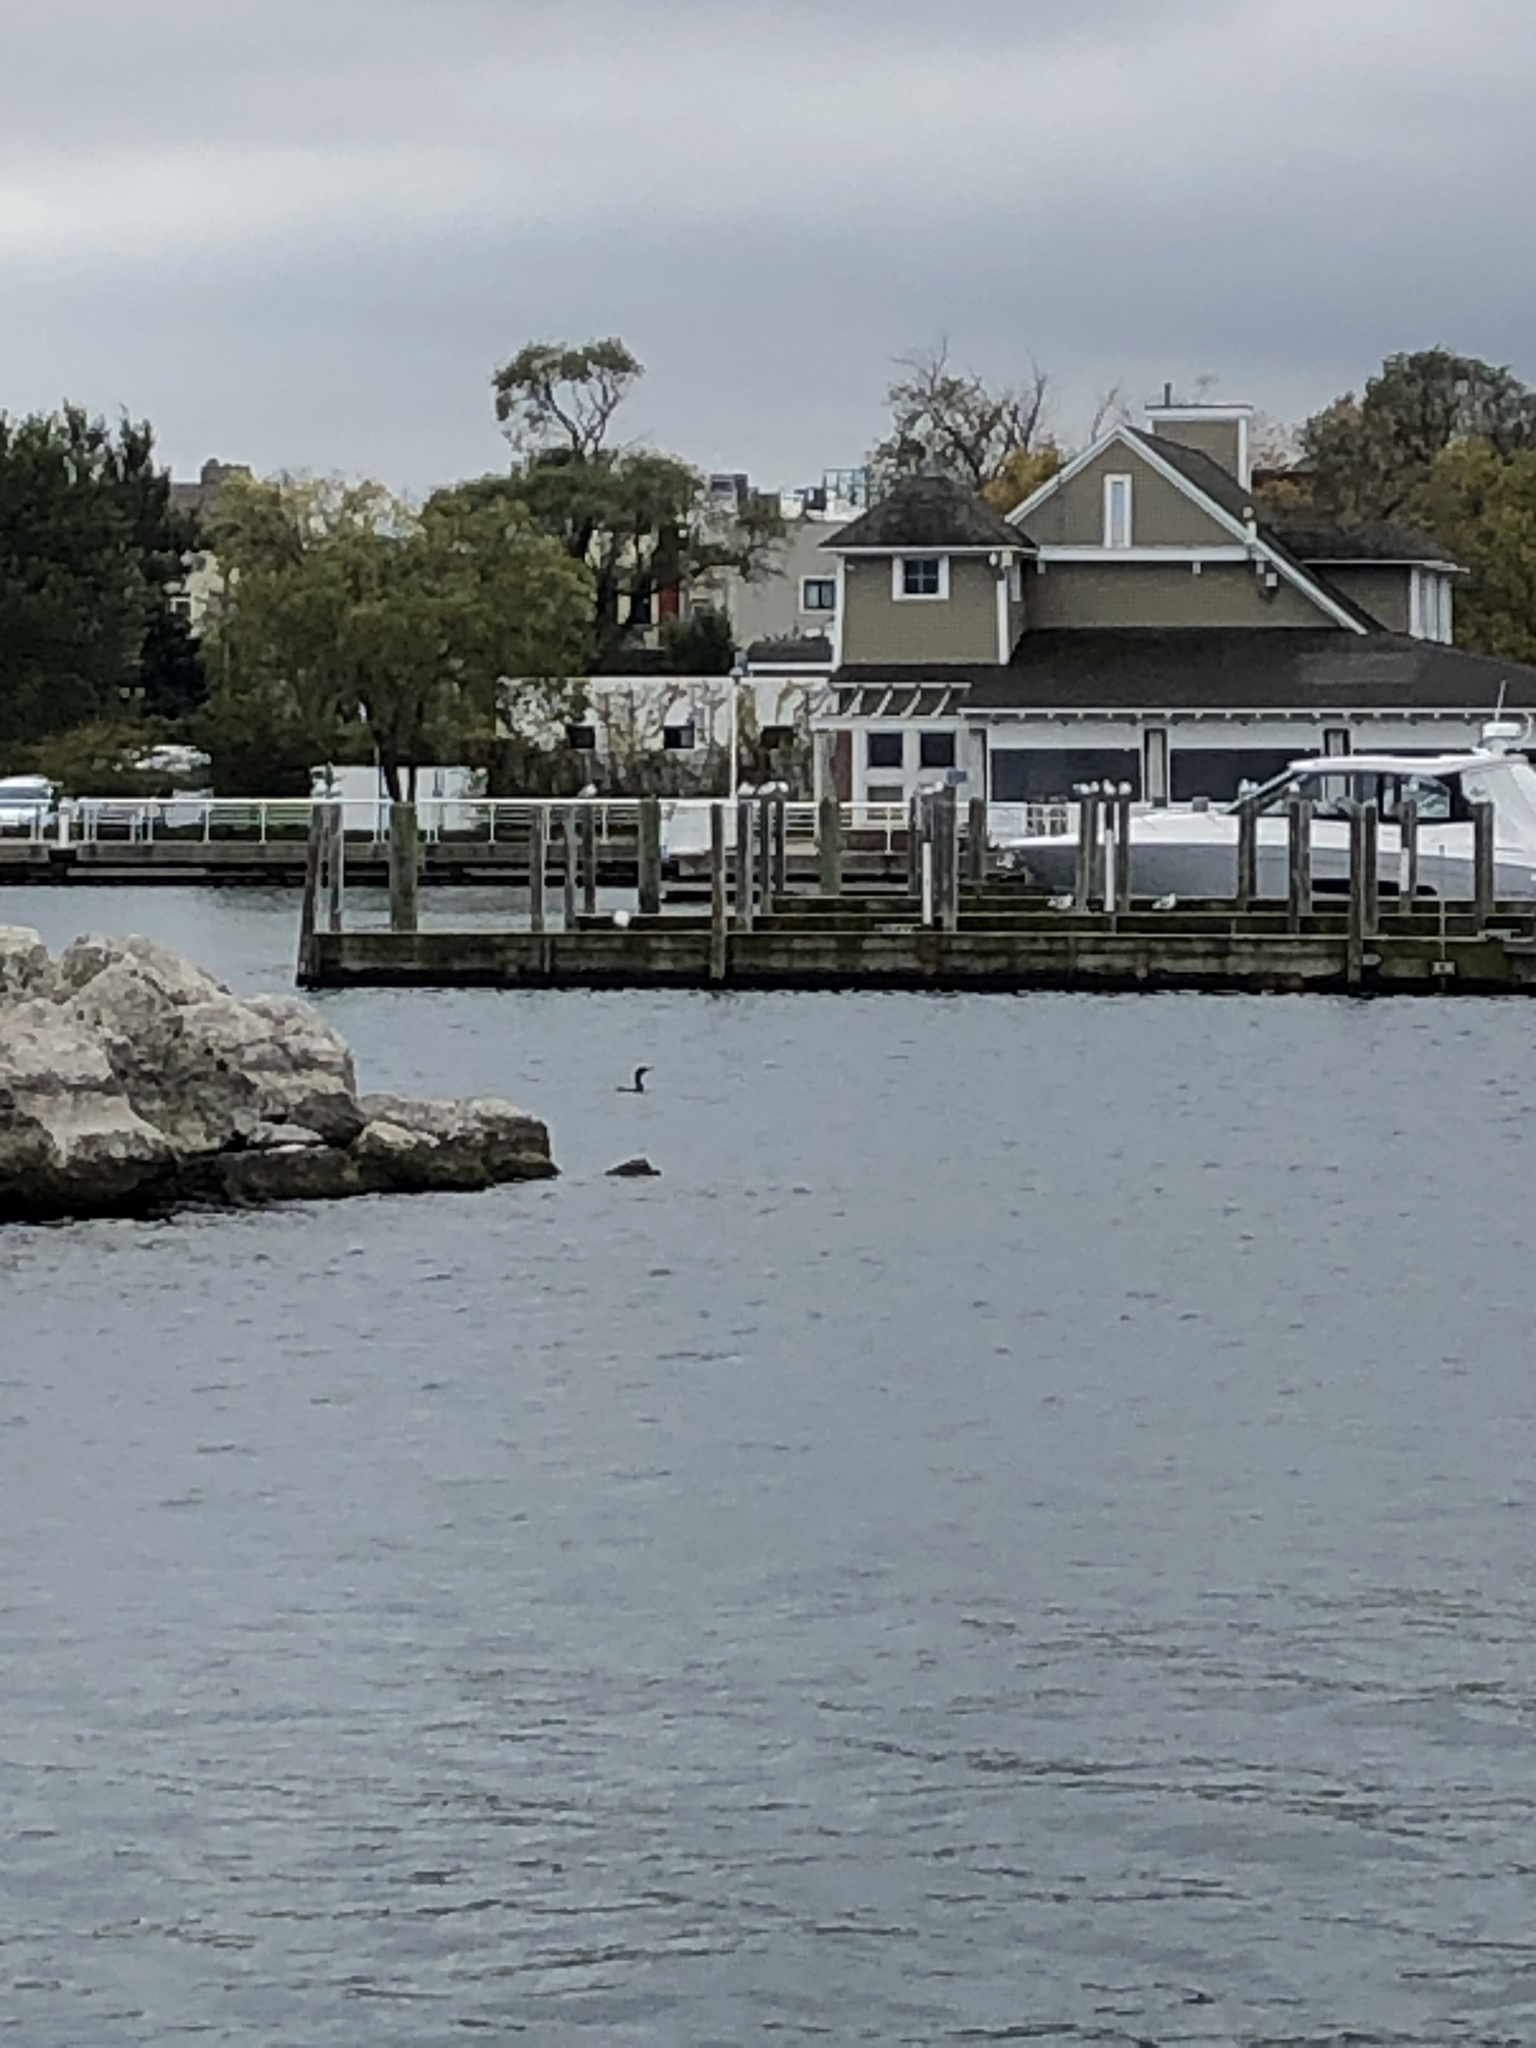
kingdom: Animalia
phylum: Chordata
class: Aves
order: Suliformes
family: Phalacrocoracidae
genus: Phalacrocorax
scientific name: Phalacrocorax auritus
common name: Double-crested cormorant
